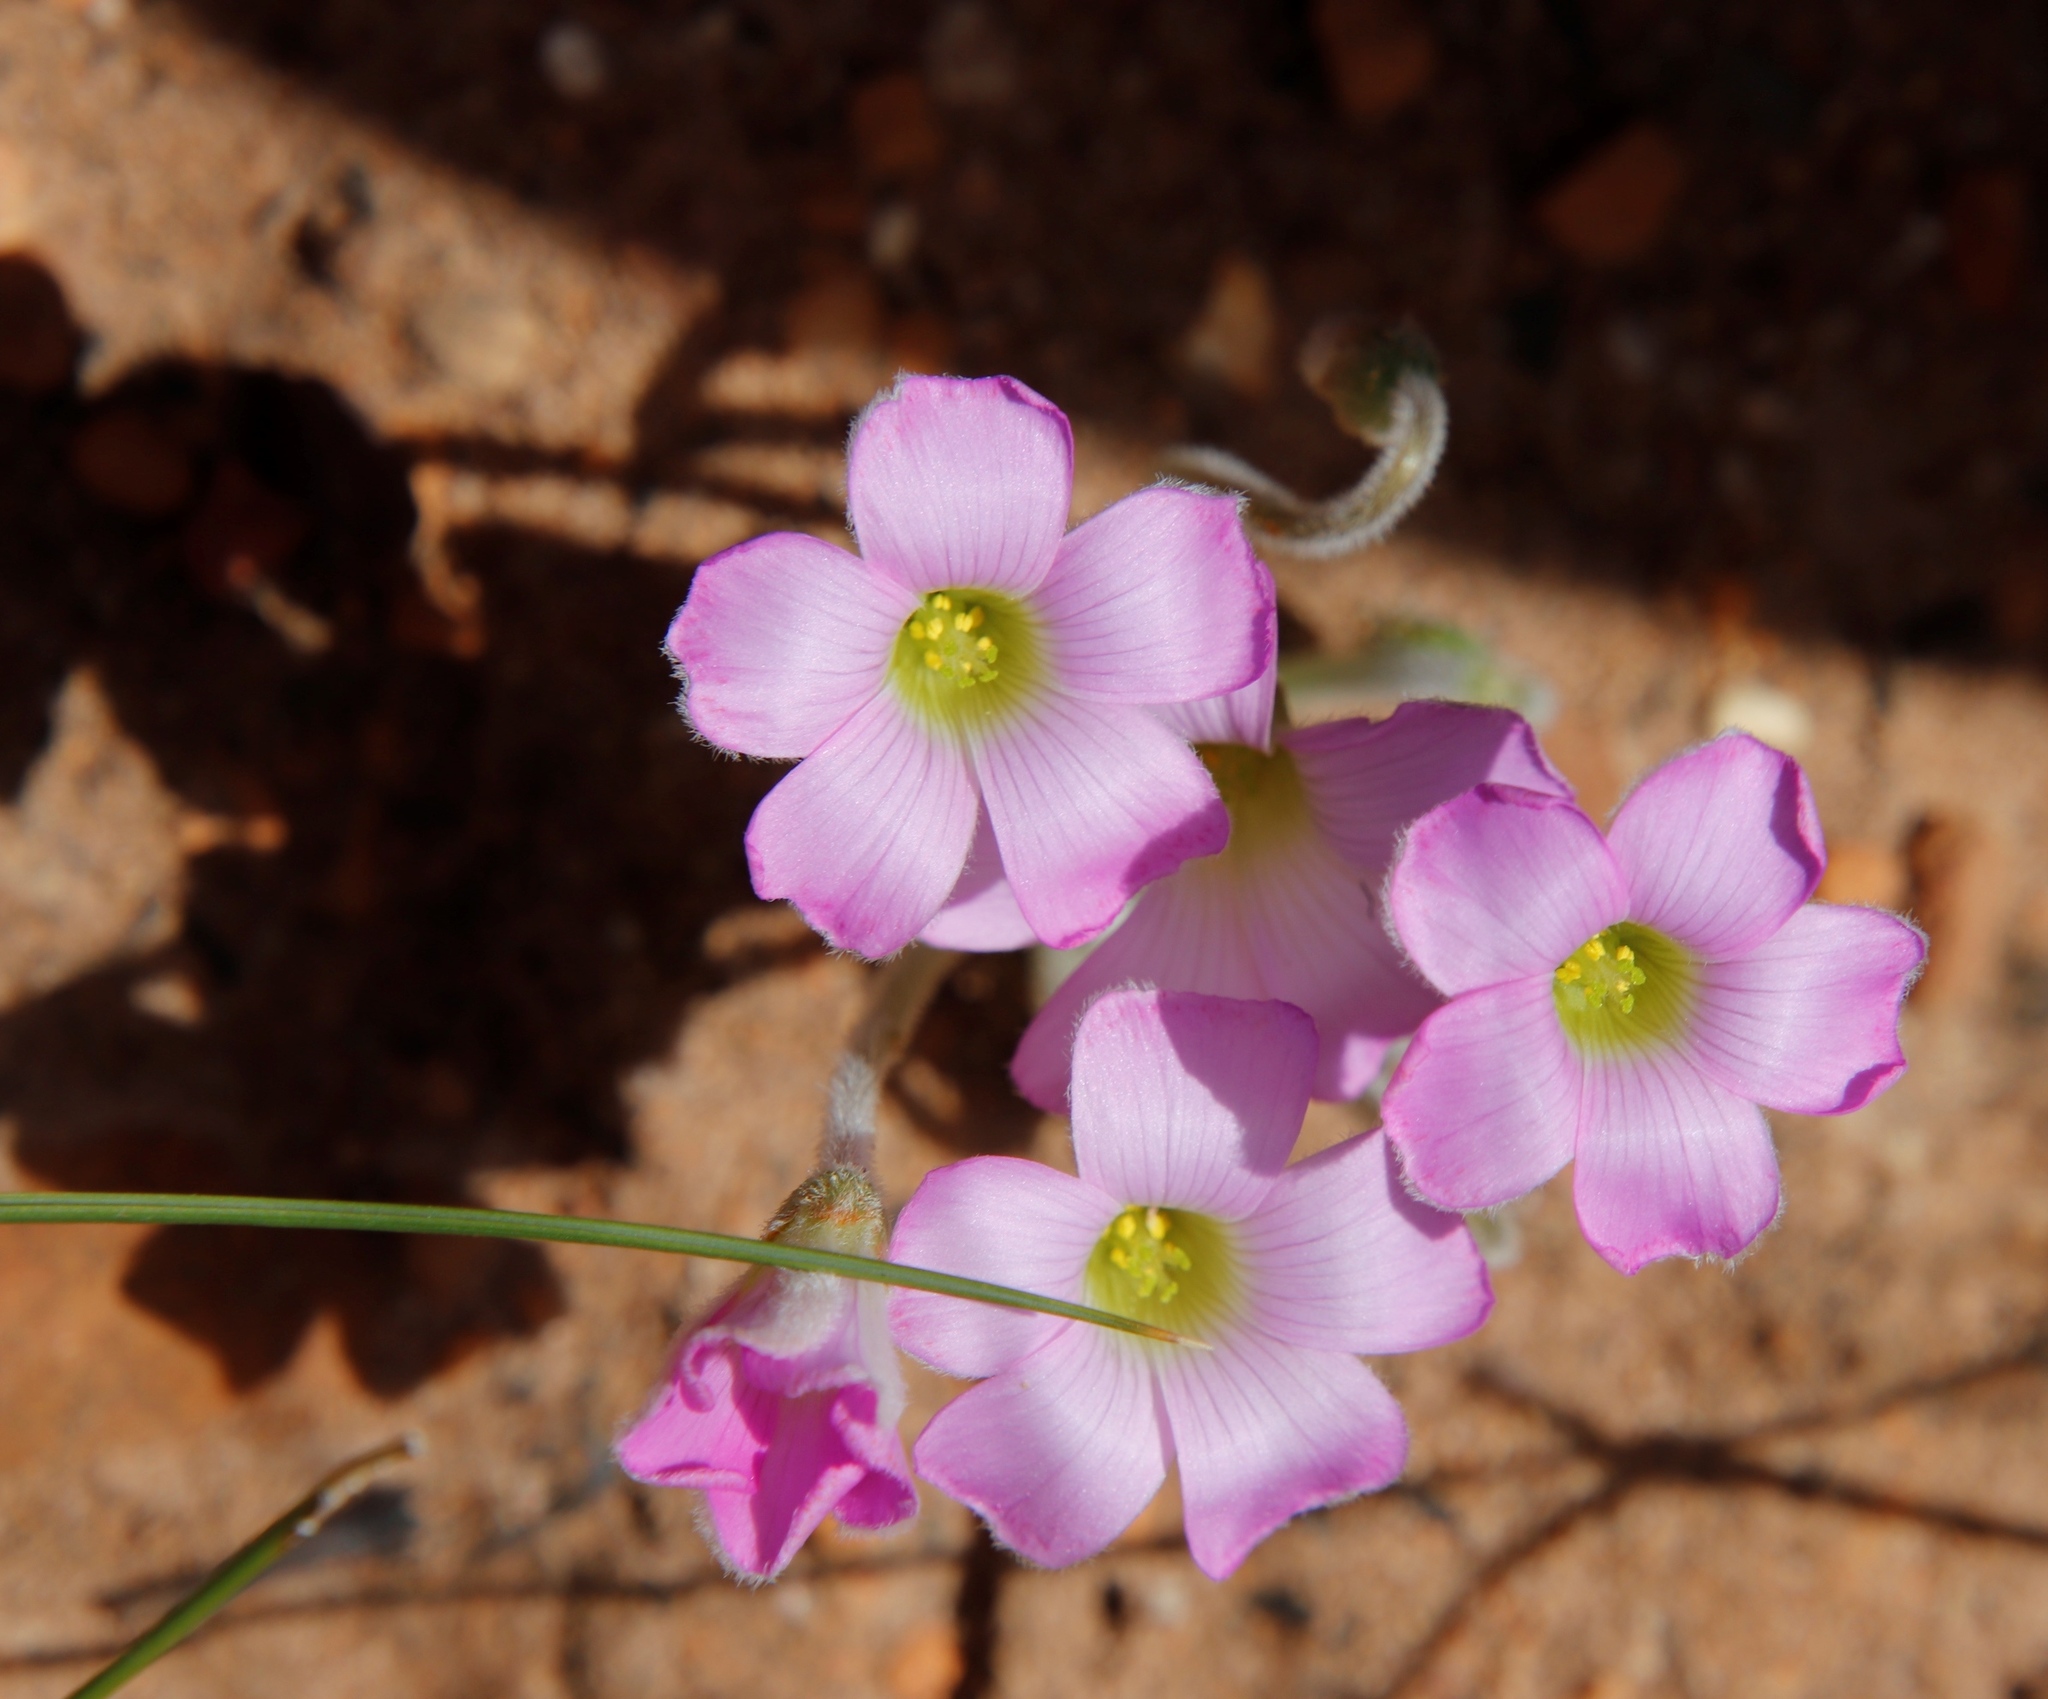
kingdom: Plantae
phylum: Tracheophyta
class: Magnoliopsida
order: Oxalidales
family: Oxalidaceae
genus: Oxalis
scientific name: Oxalis truncatula
